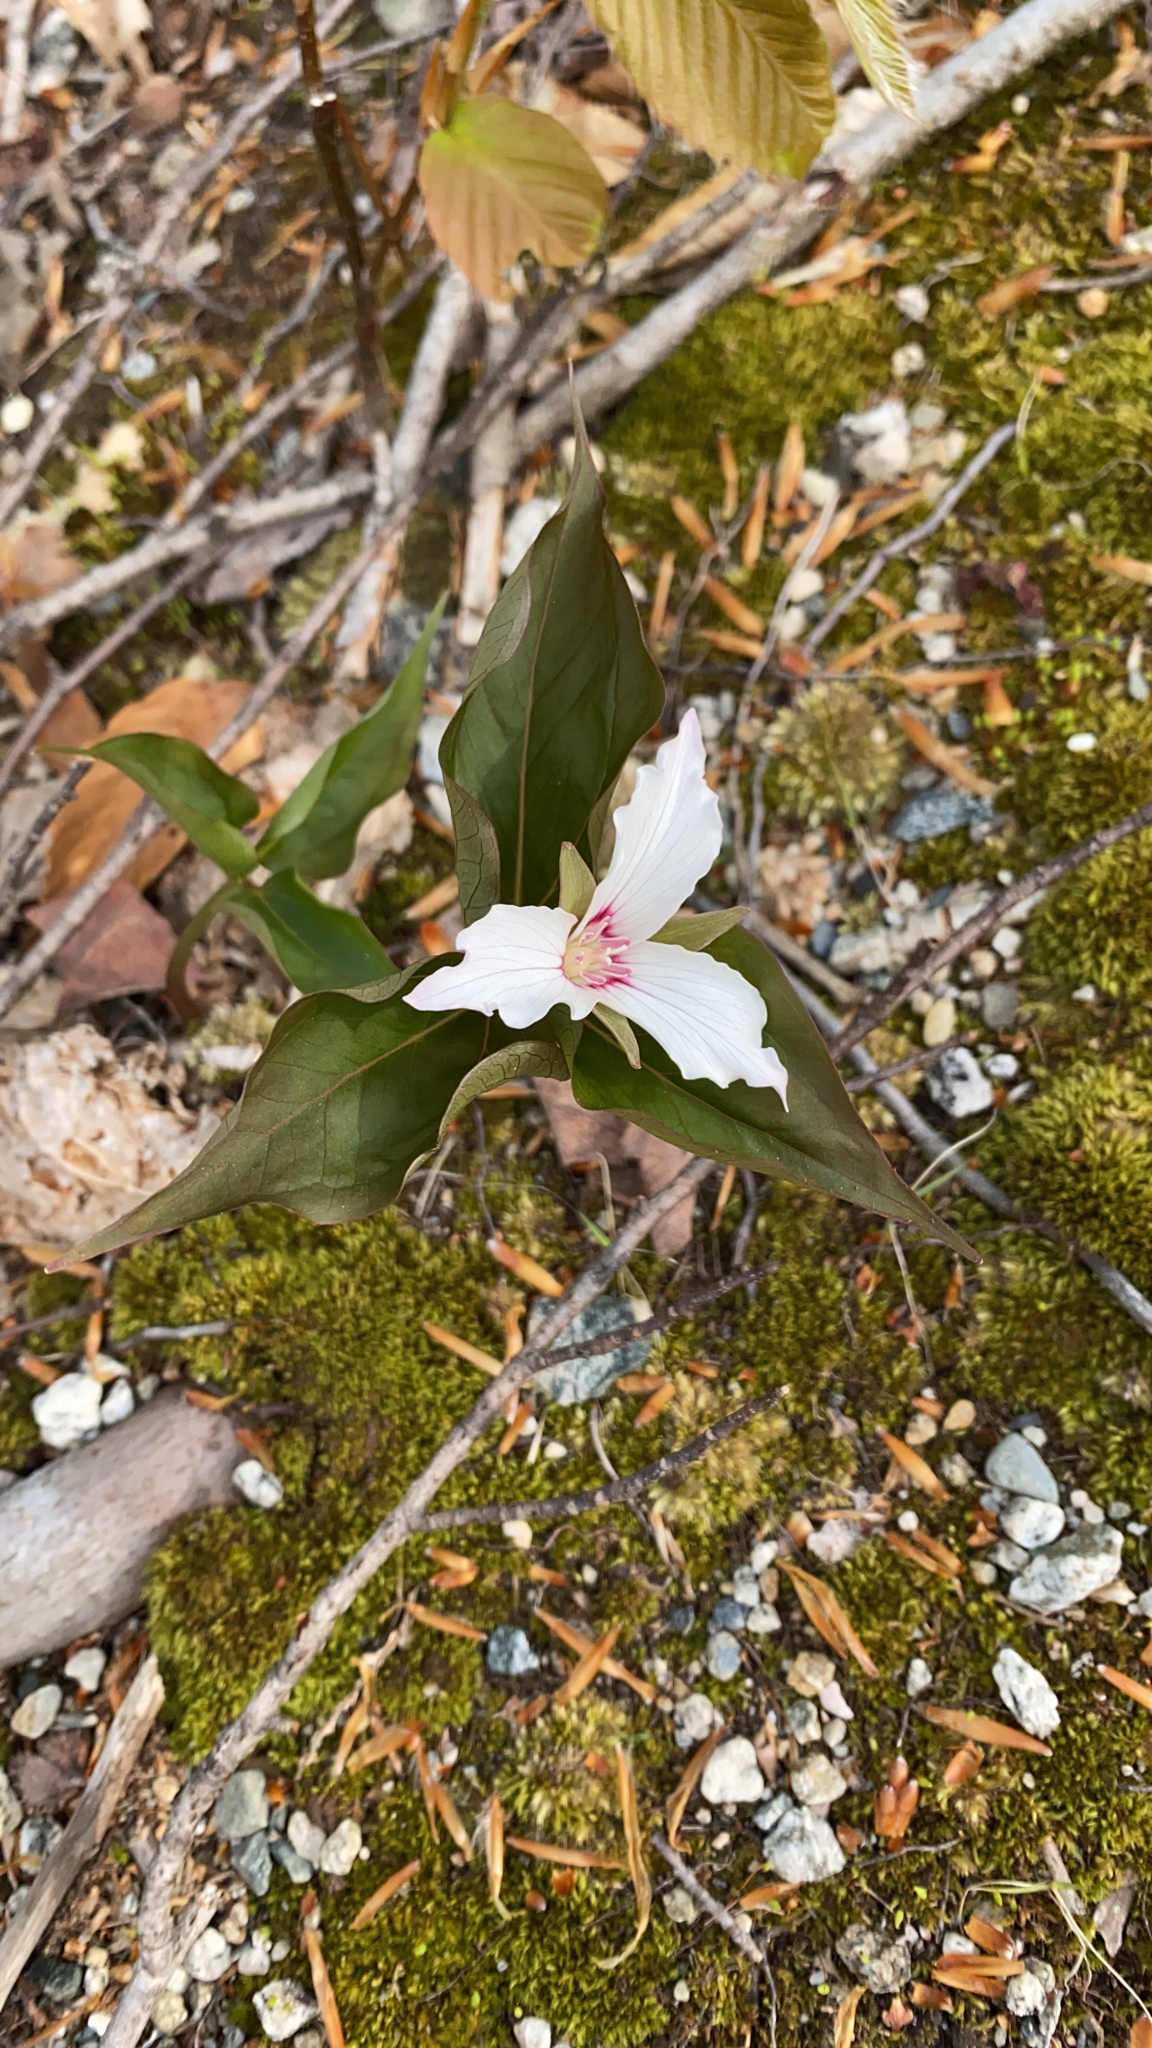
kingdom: Plantae
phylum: Tracheophyta
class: Liliopsida
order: Liliales
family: Melanthiaceae
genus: Trillium
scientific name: Trillium undulatum
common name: Paint trillium
